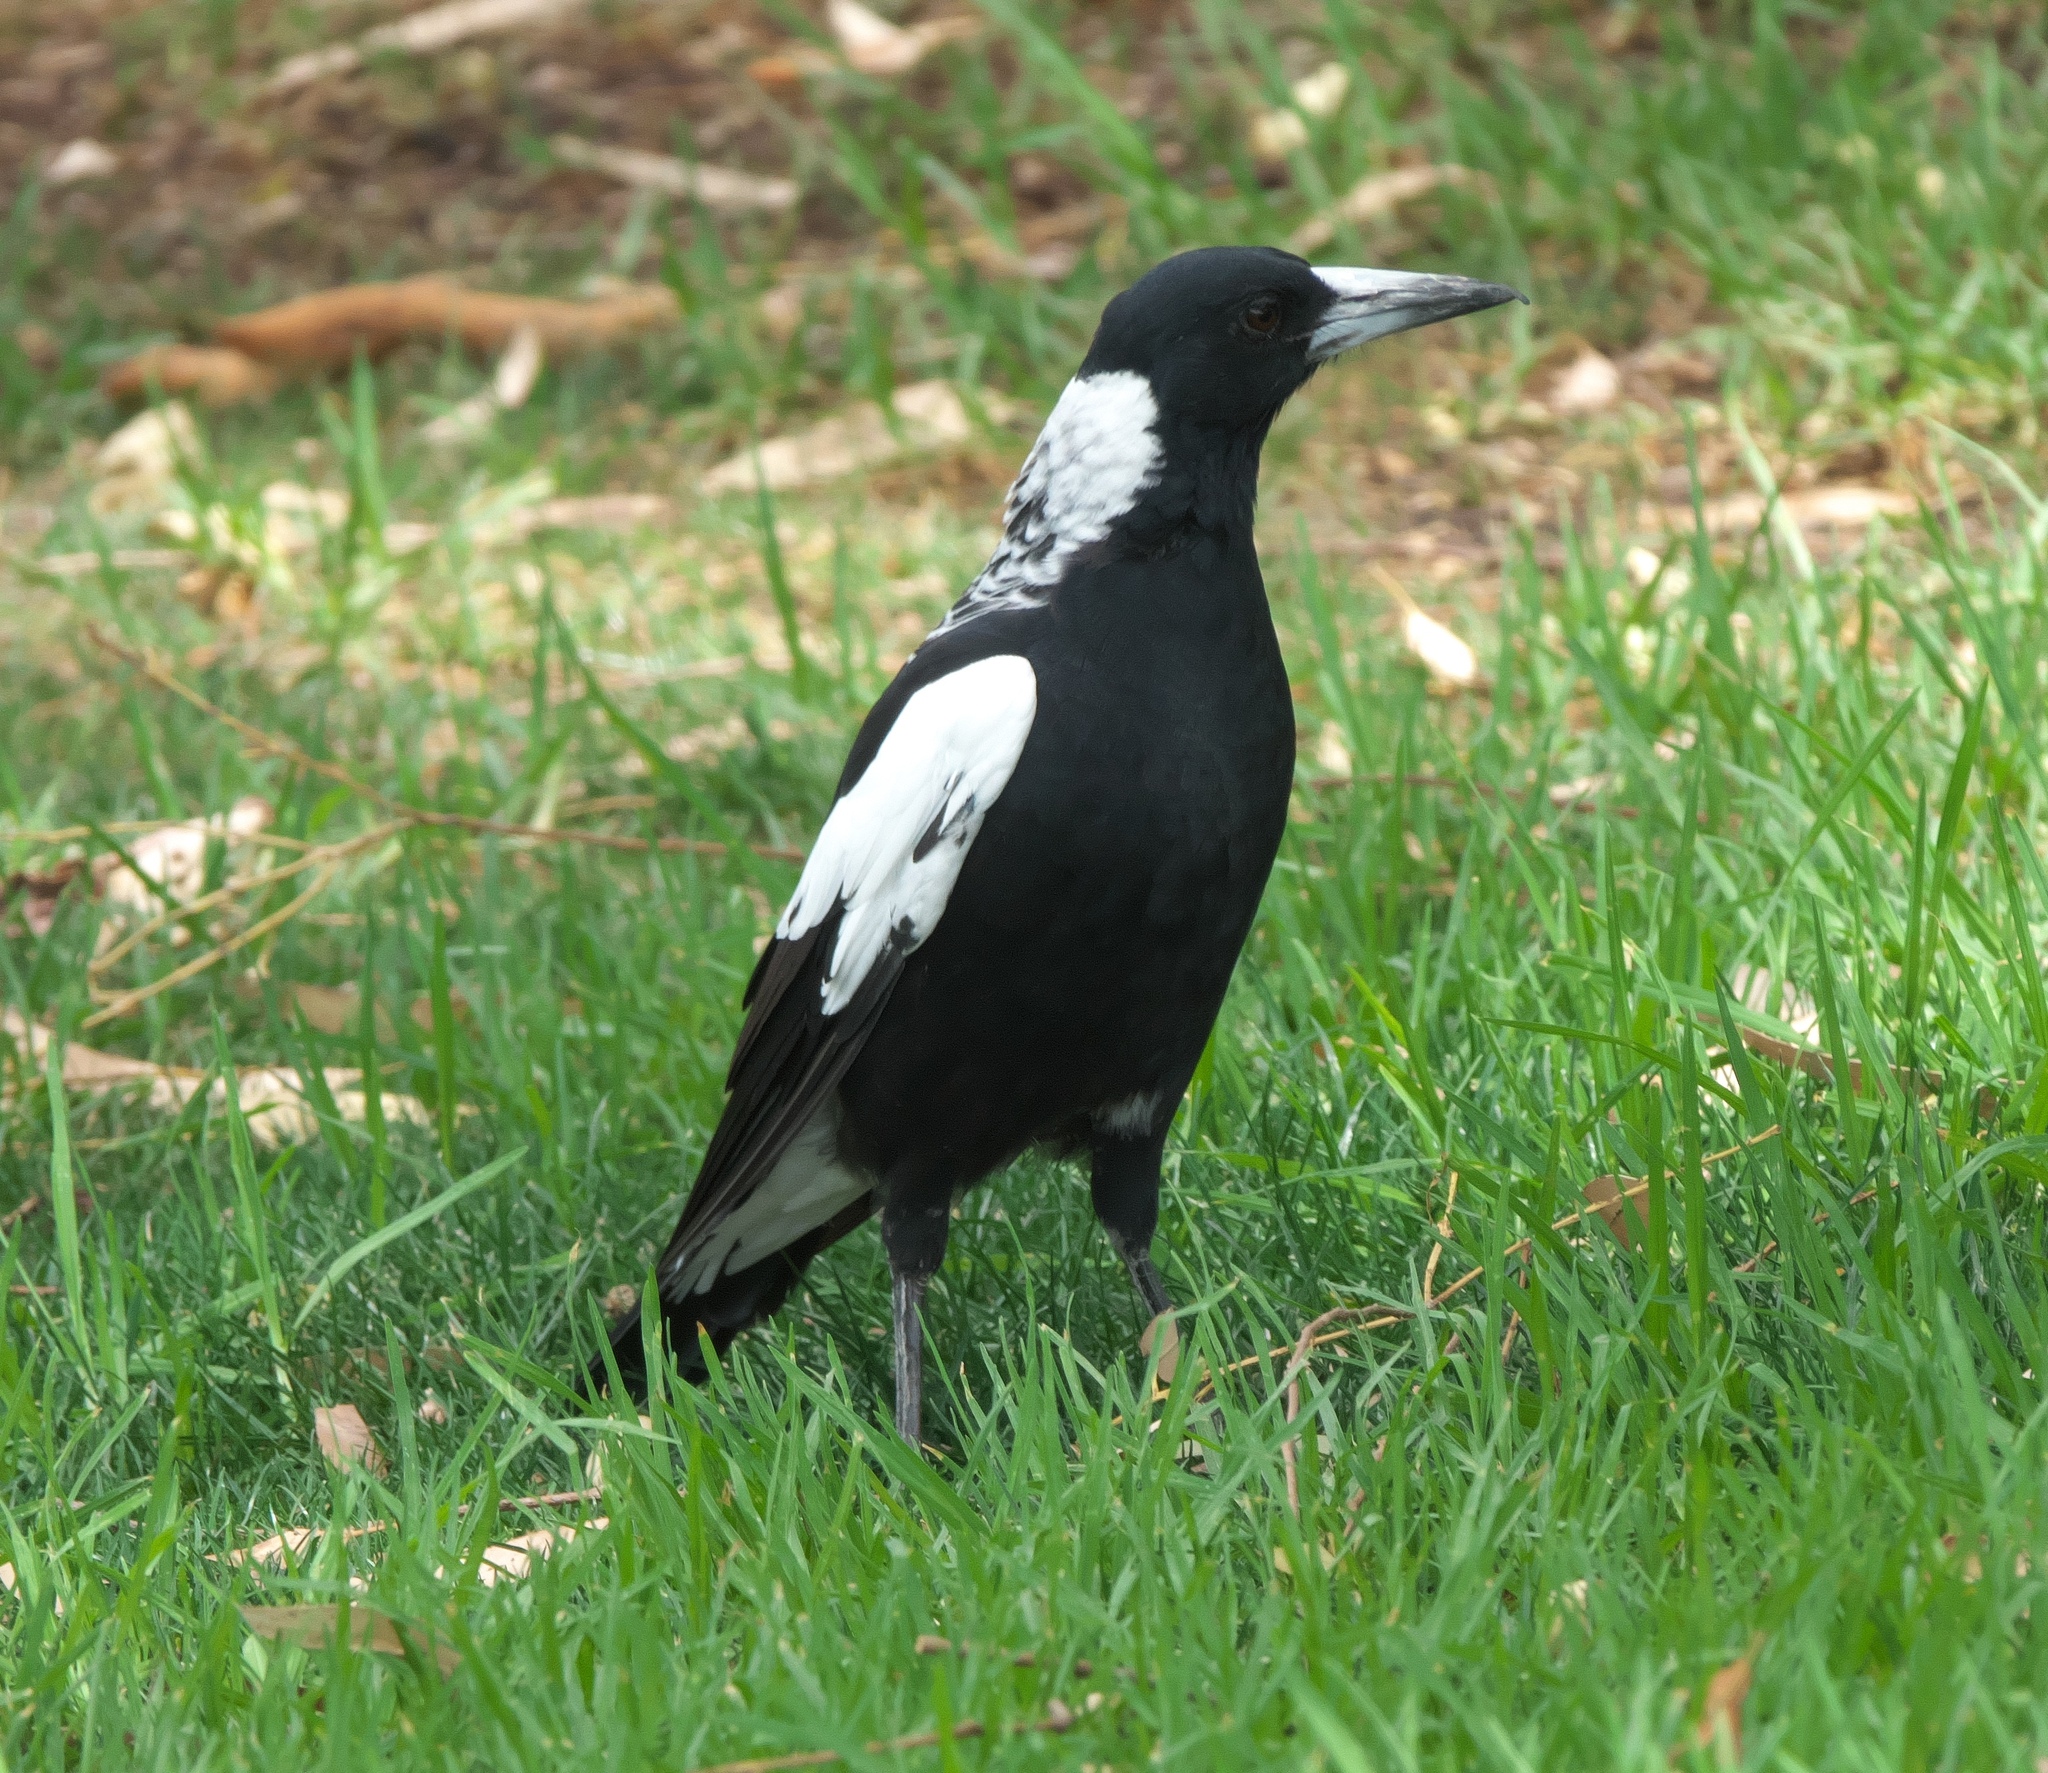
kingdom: Animalia
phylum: Chordata
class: Aves
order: Passeriformes
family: Cracticidae
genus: Gymnorhina
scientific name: Gymnorhina tibicen
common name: Australian magpie
